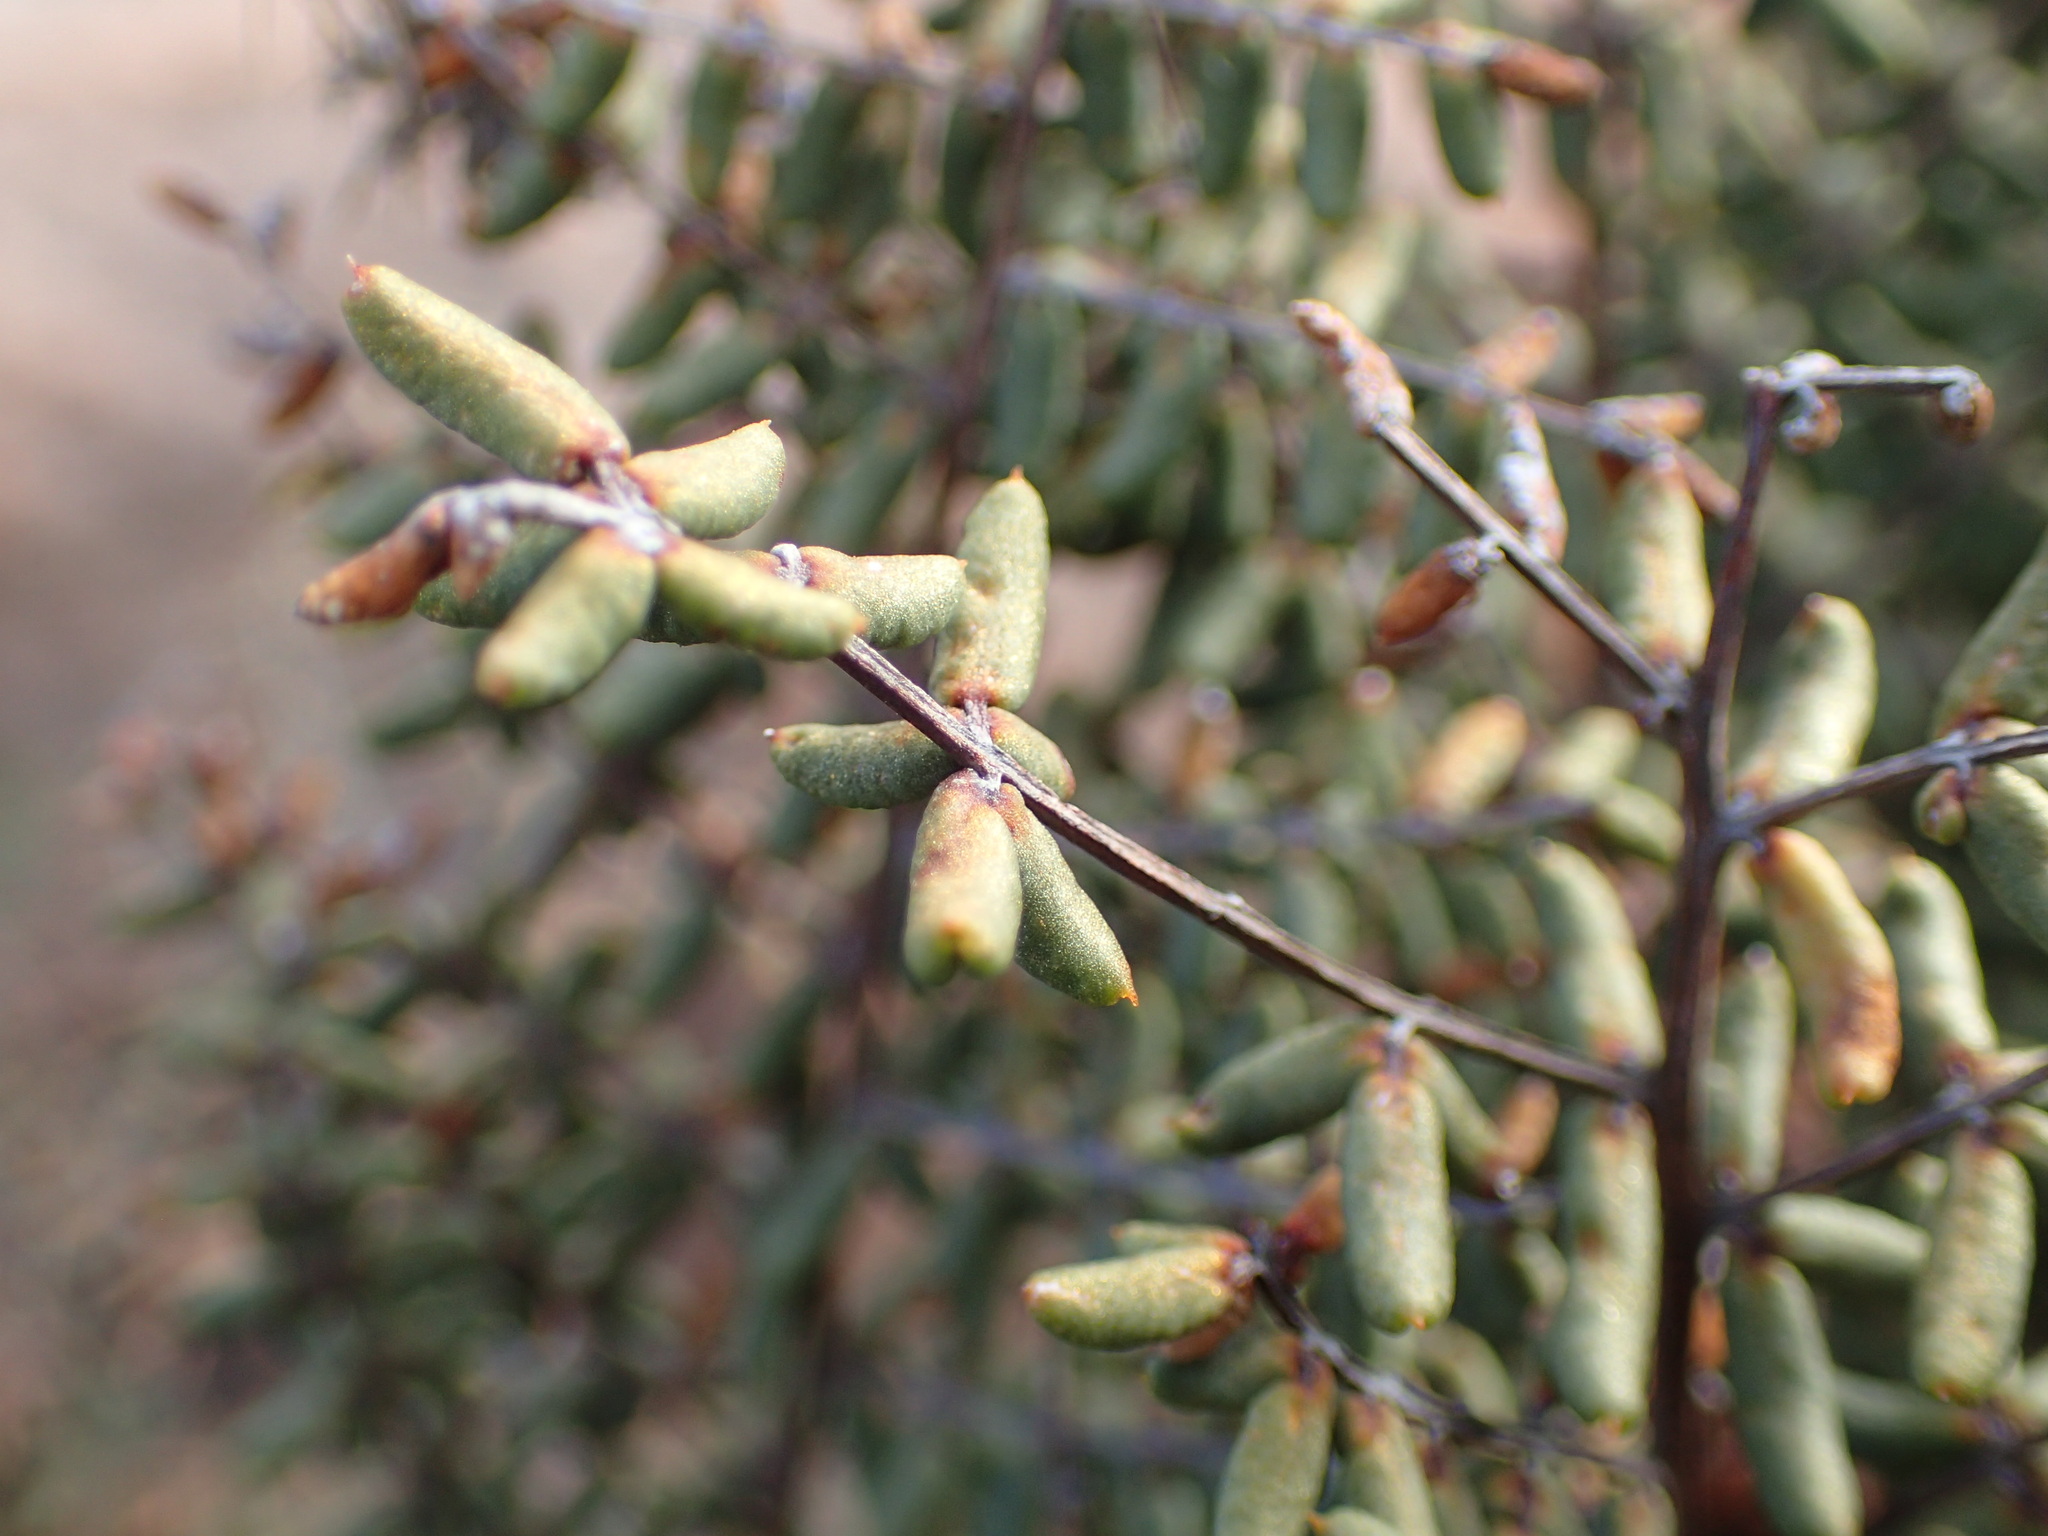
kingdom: Plantae
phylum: Tracheophyta
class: Polypodiopsida
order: Polypodiales
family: Pteridaceae
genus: Pellaea
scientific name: Pellaea mucronata
